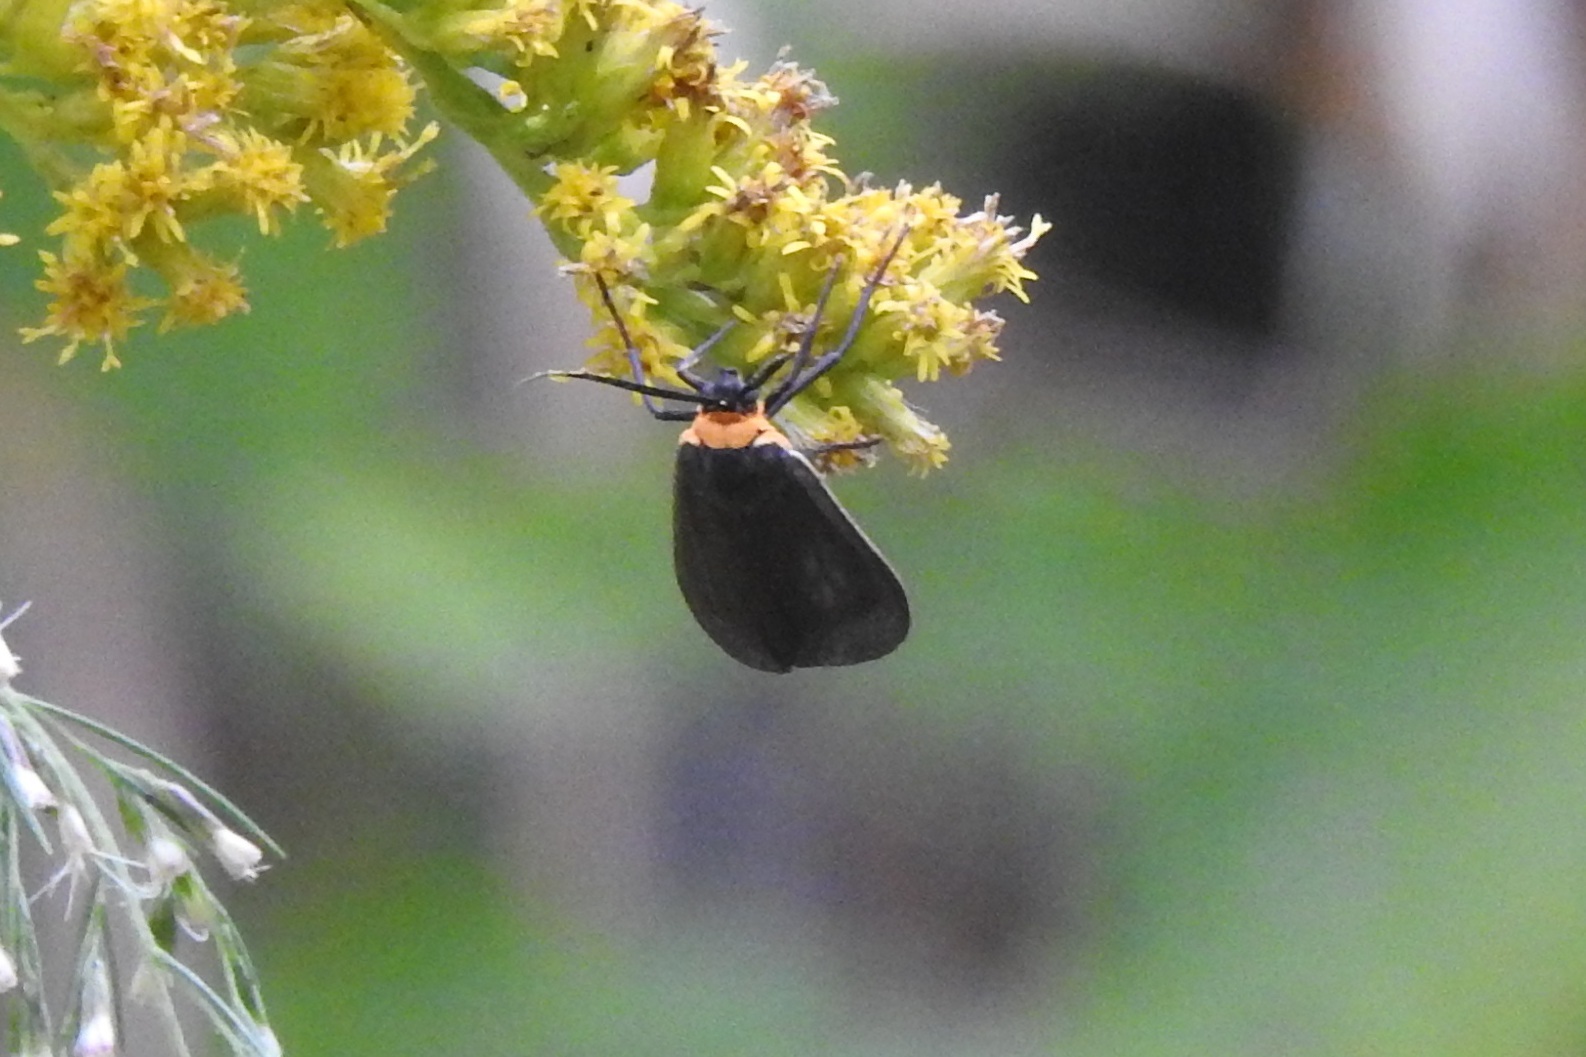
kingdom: Animalia
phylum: Arthropoda
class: Insecta
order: Lepidoptera
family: Erebidae
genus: Cisseps
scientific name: Cisseps fulvicollis
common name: Yellow-collared scape moth
